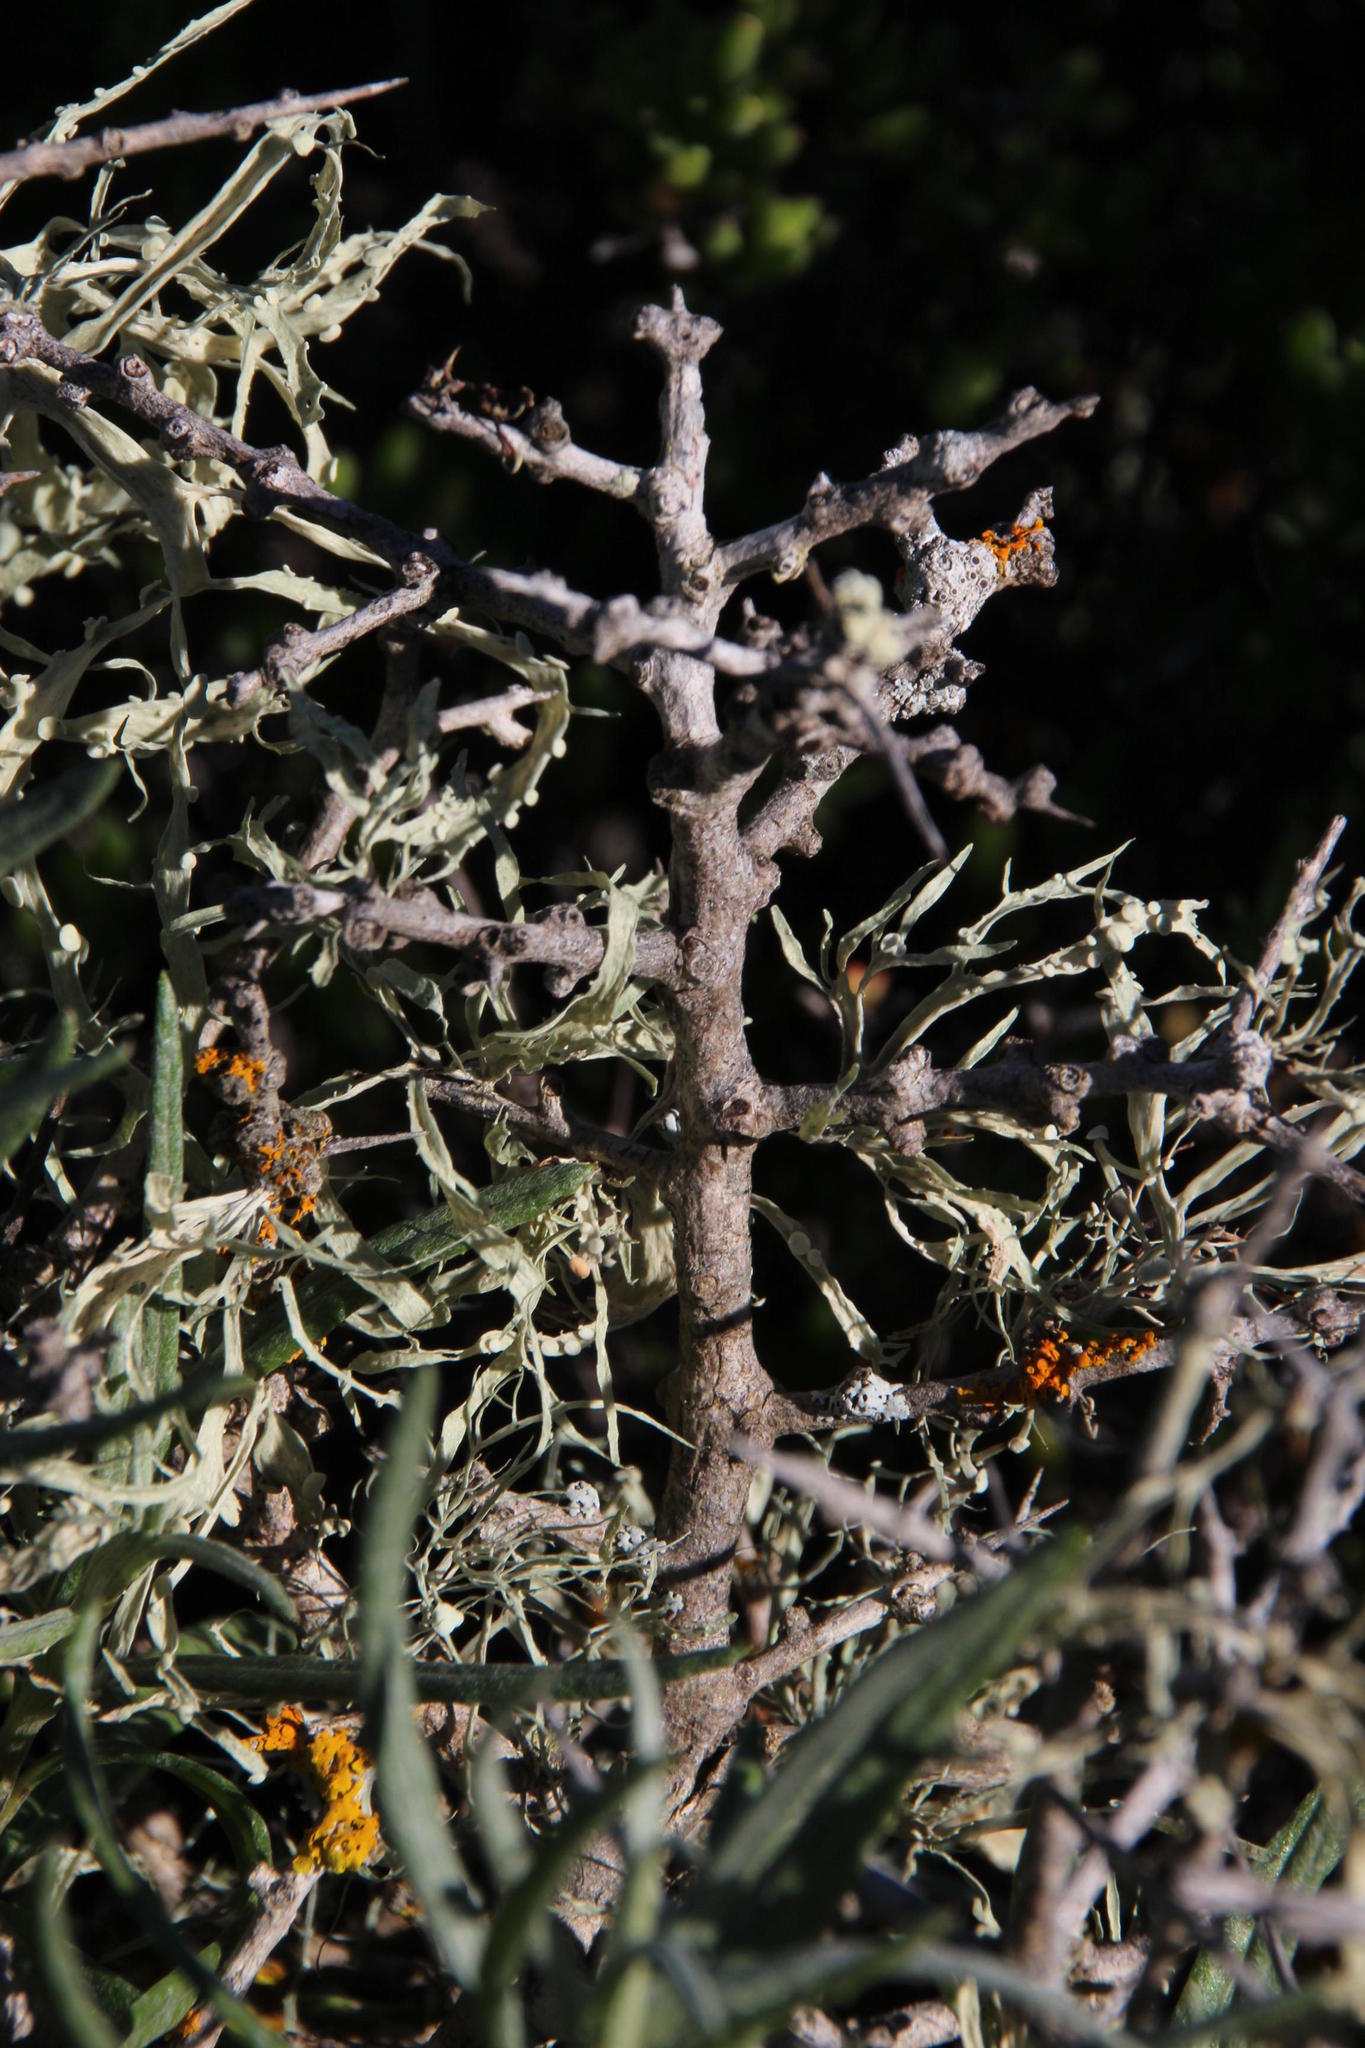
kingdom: Plantae
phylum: Tracheophyta
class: Magnoliopsida
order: Solanales
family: Solanaceae
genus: Lycium
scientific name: Lycium cinereum
